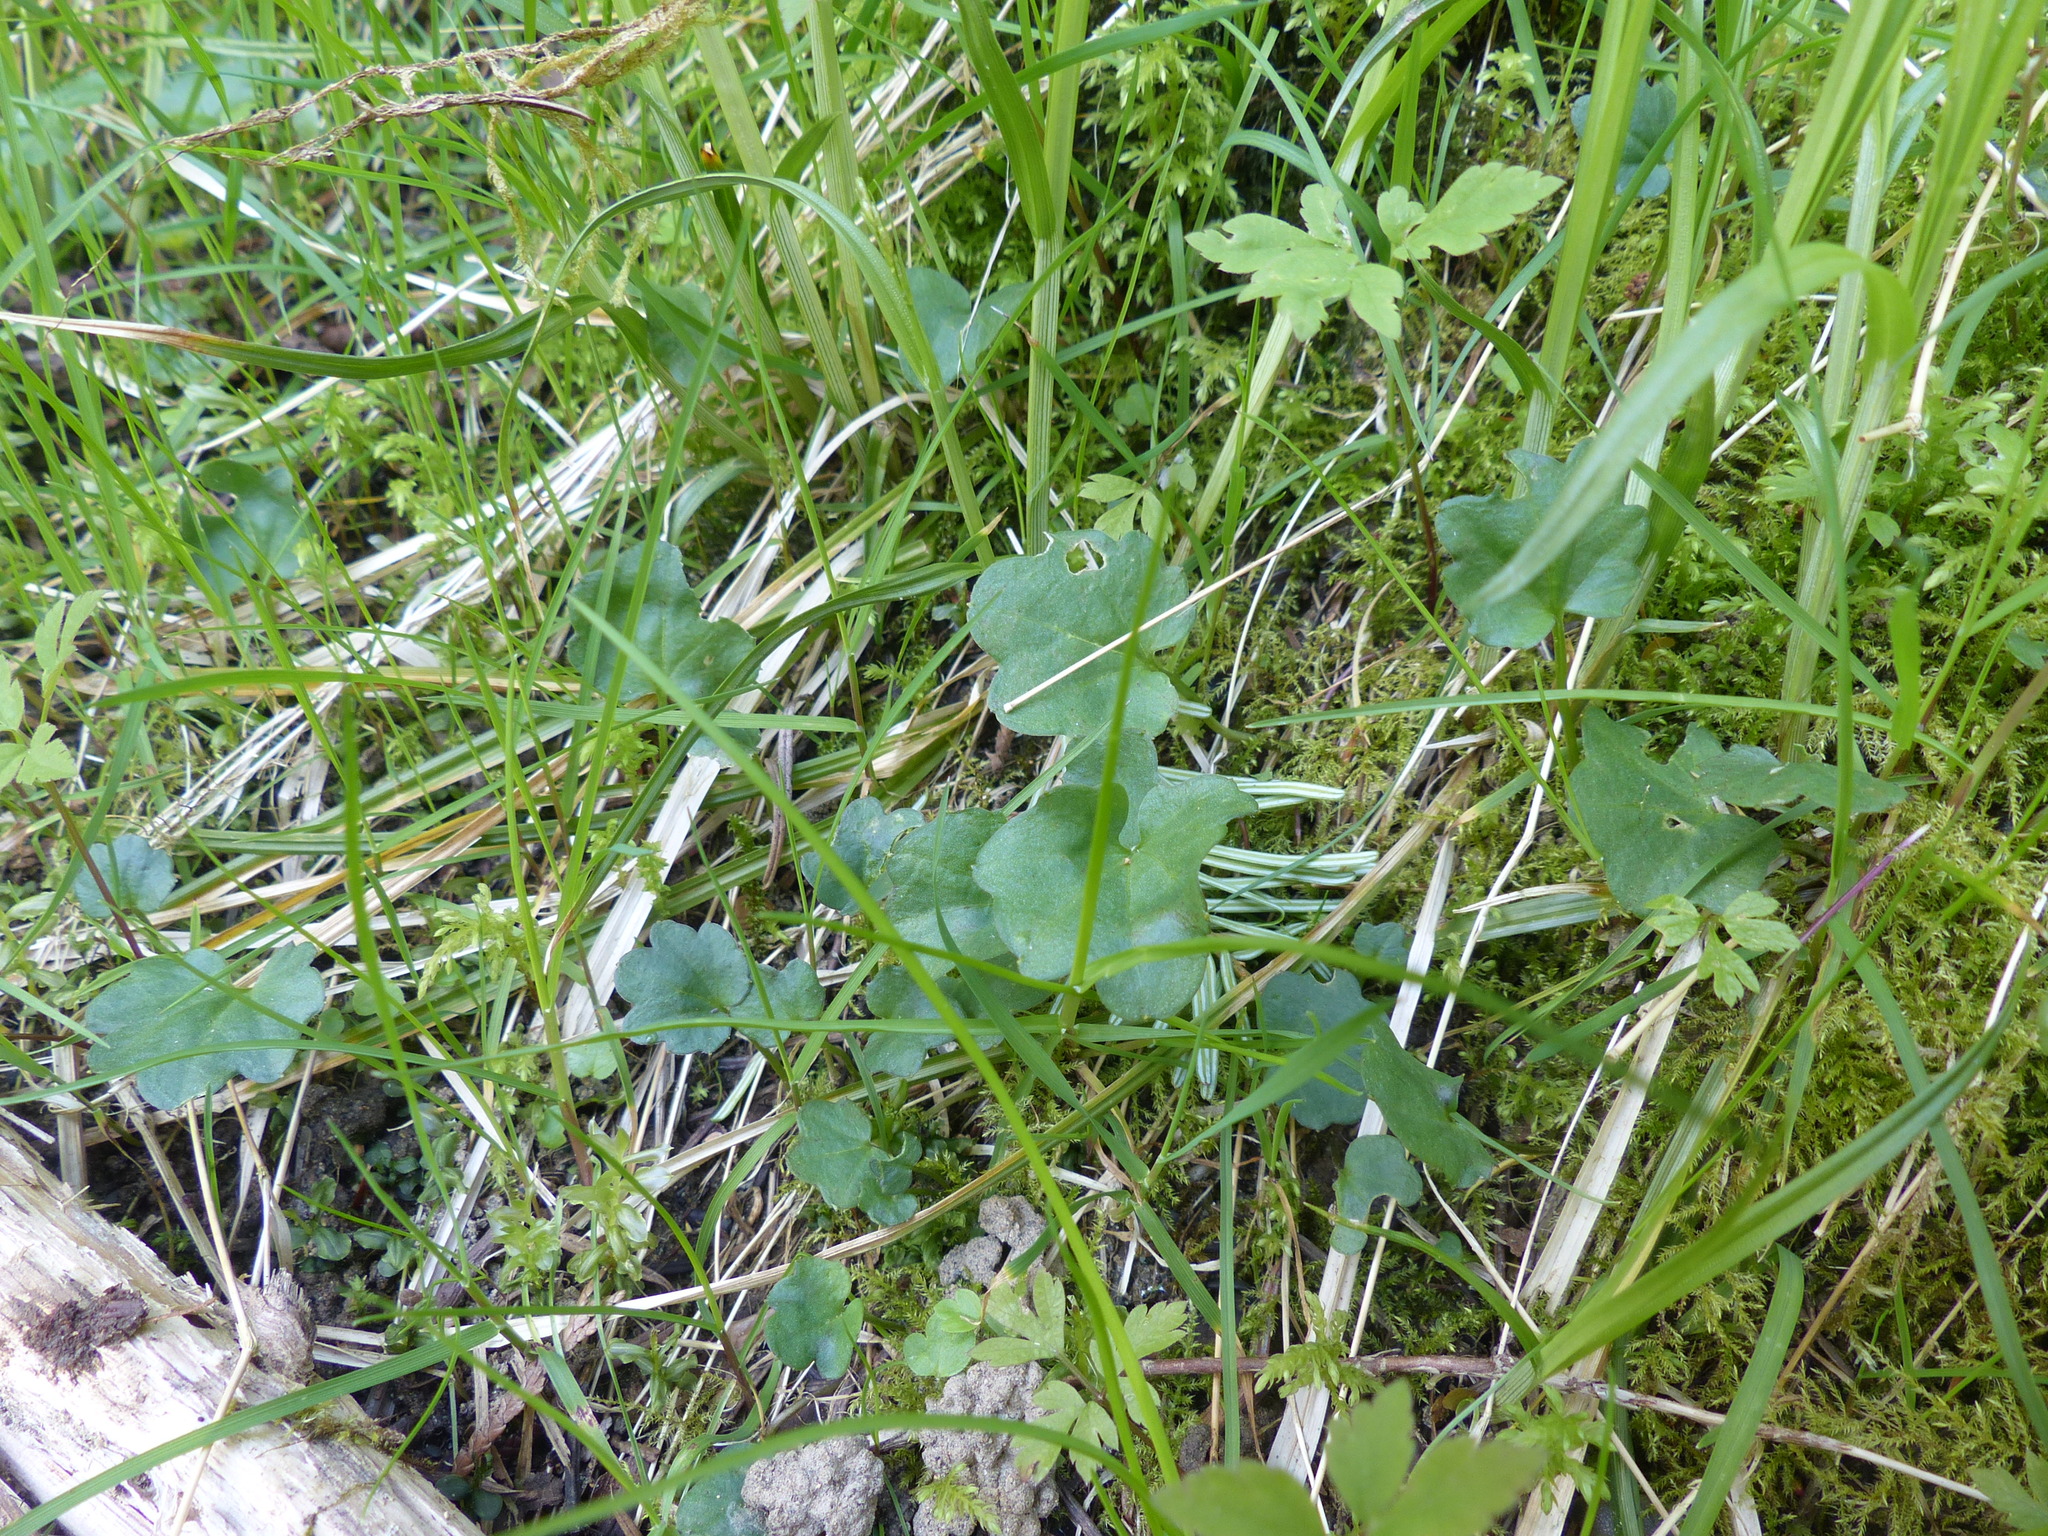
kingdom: Plantae
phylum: Tracheophyta
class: Magnoliopsida
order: Brassicales
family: Brassicaceae
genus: Cardamine
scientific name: Cardamine nuttallii
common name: Nuttall's toothwort
